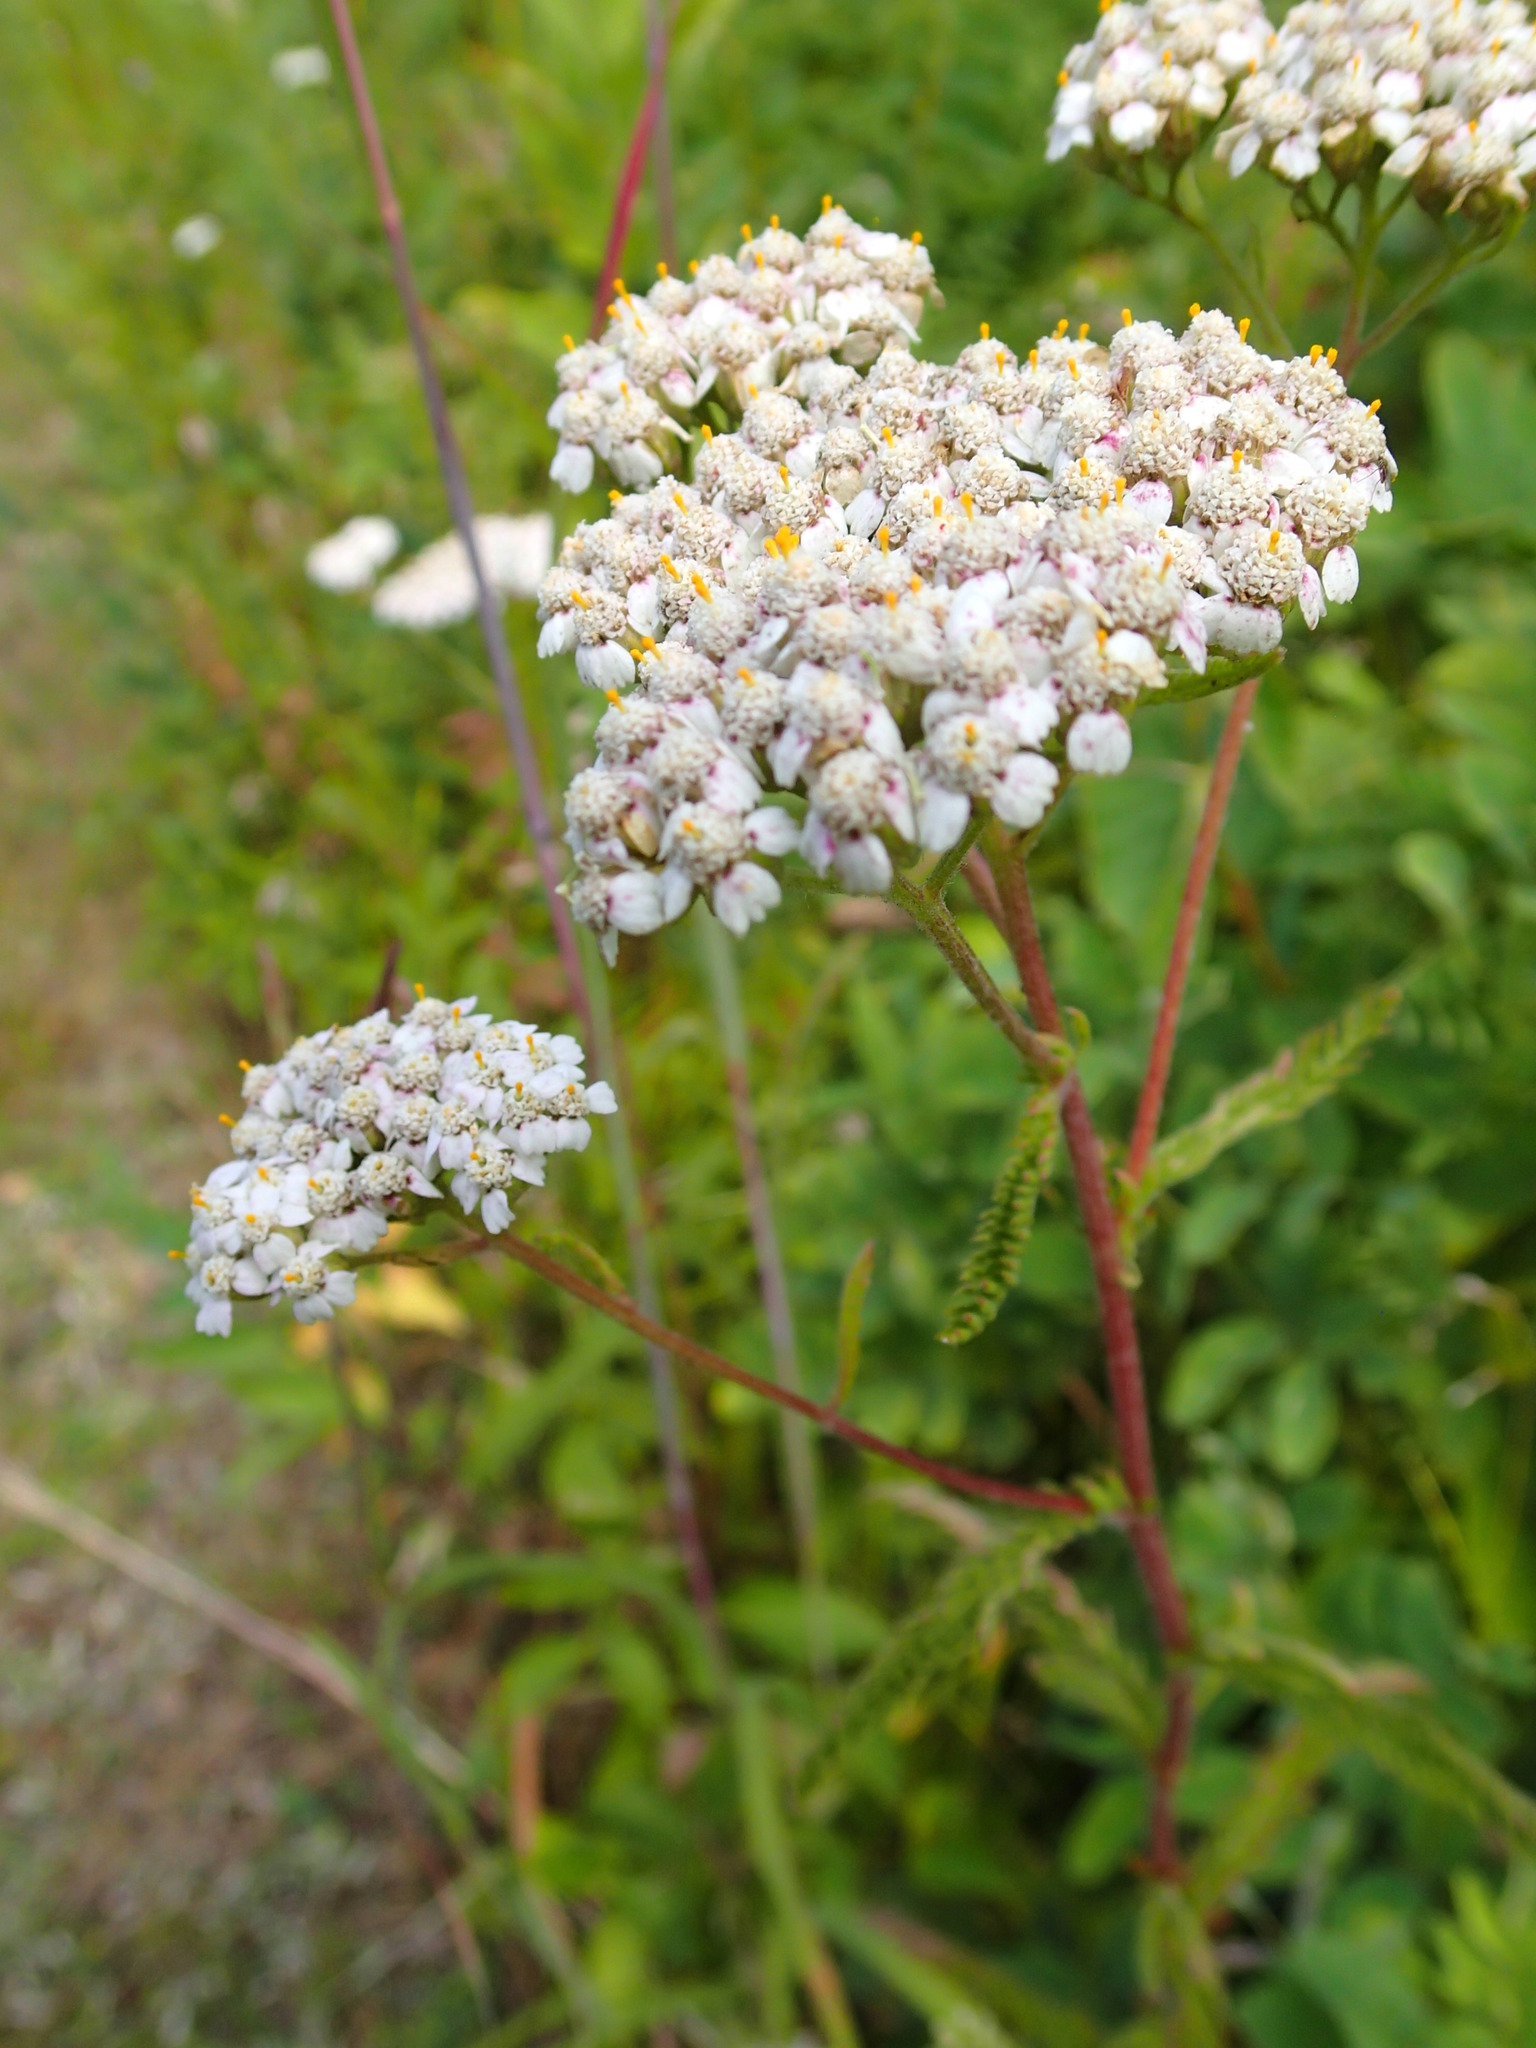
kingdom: Plantae
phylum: Tracheophyta
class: Magnoliopsida
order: Asterales
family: Asteraceae
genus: Achillea
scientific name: Achillea millefolium
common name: Yarrow
